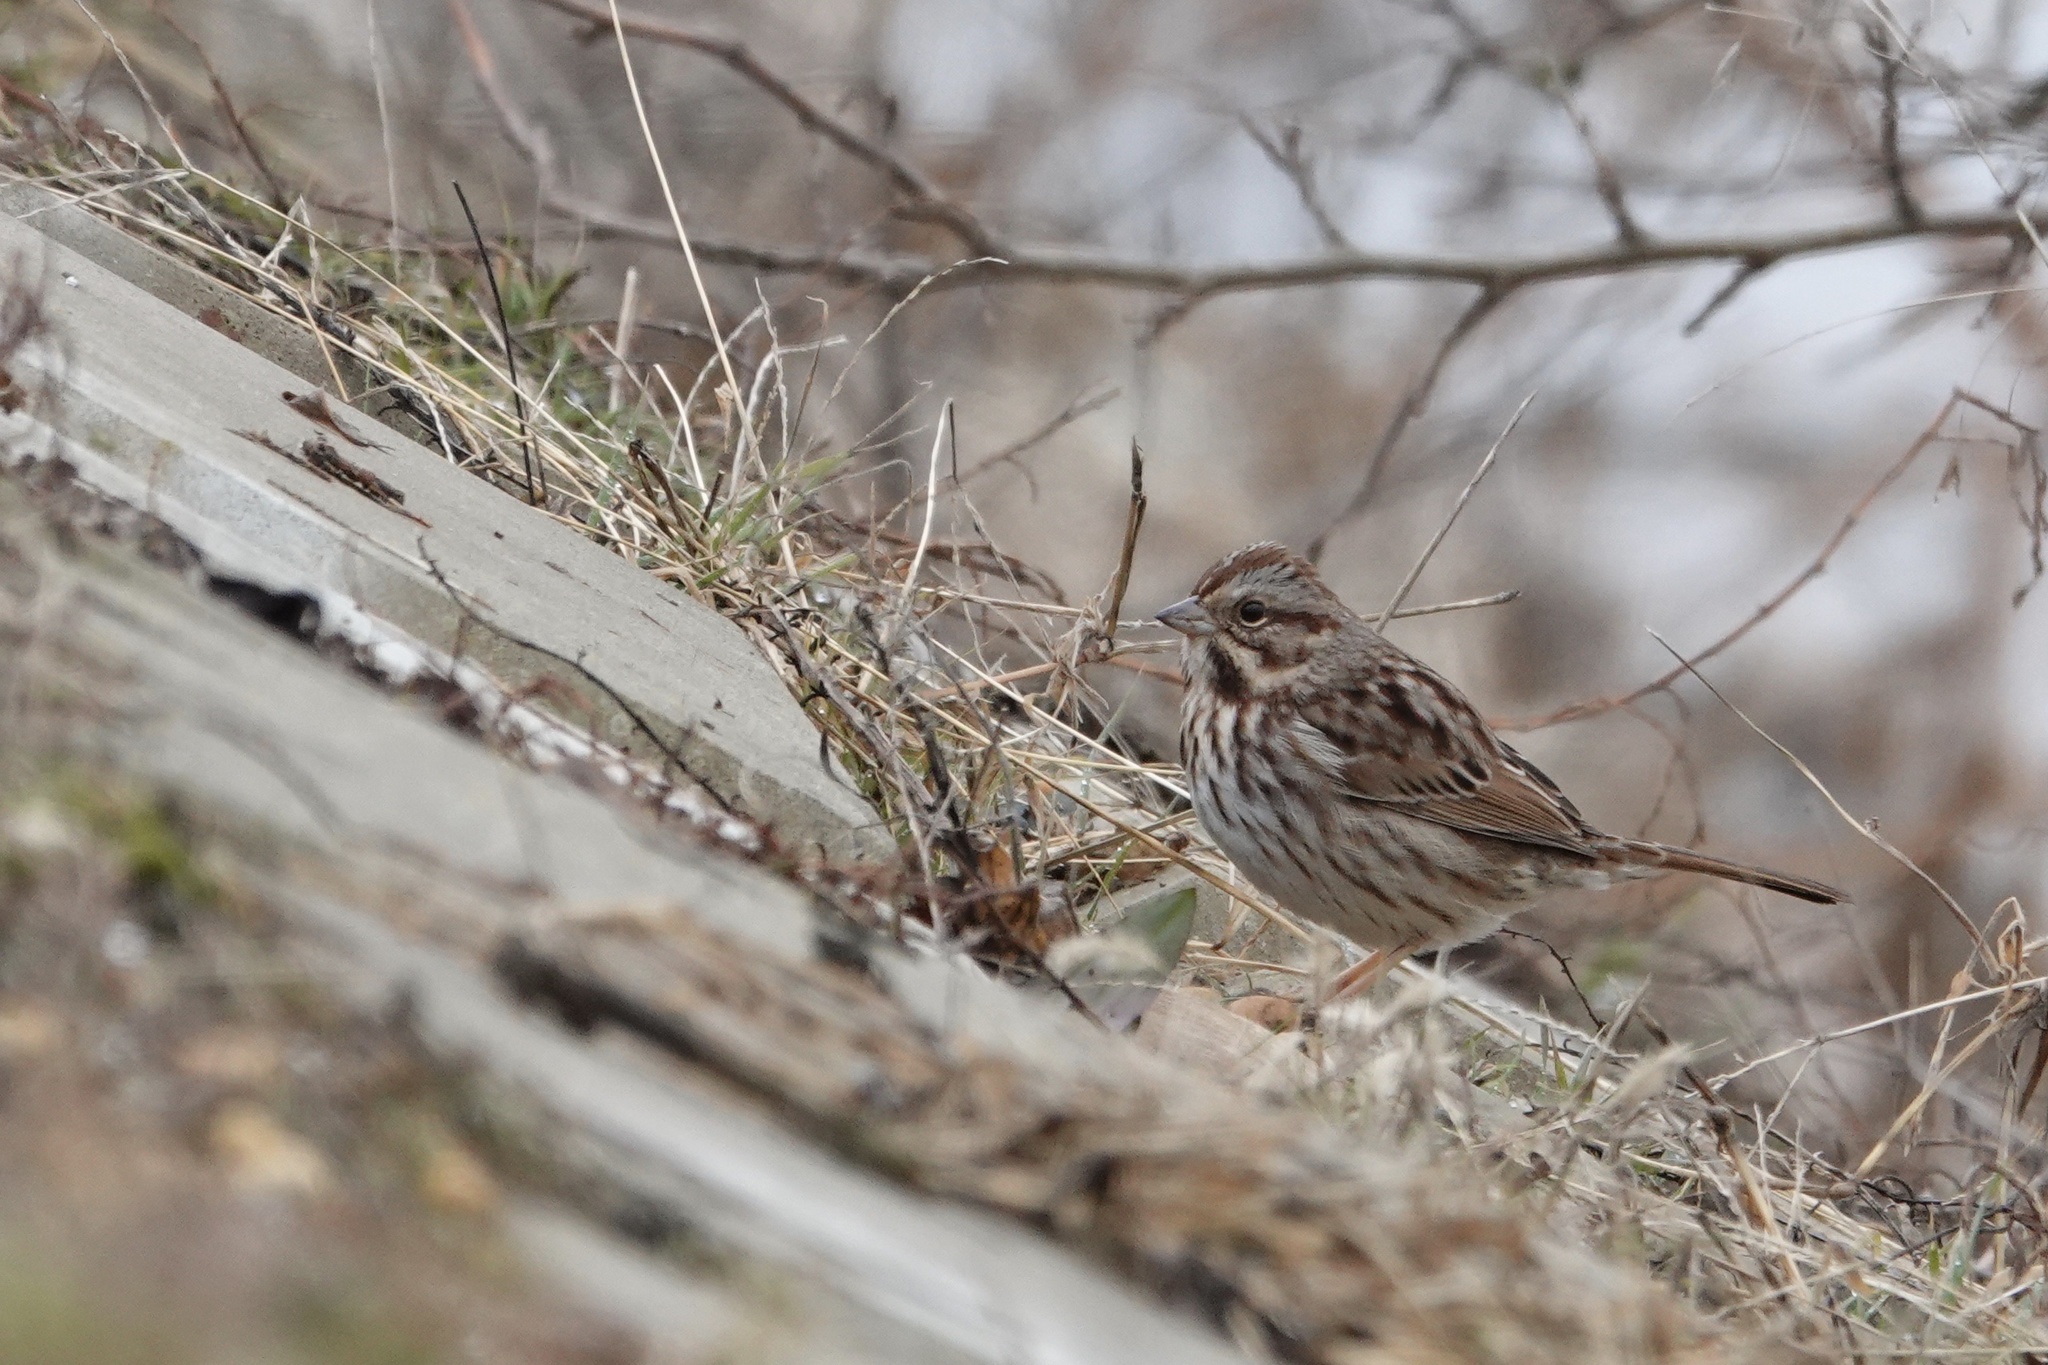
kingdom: Animalia
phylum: Chordata
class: Aves
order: Passeriformes
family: Passerellidae
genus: Melospiza
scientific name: Melospiza melodia
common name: Song sparrow
